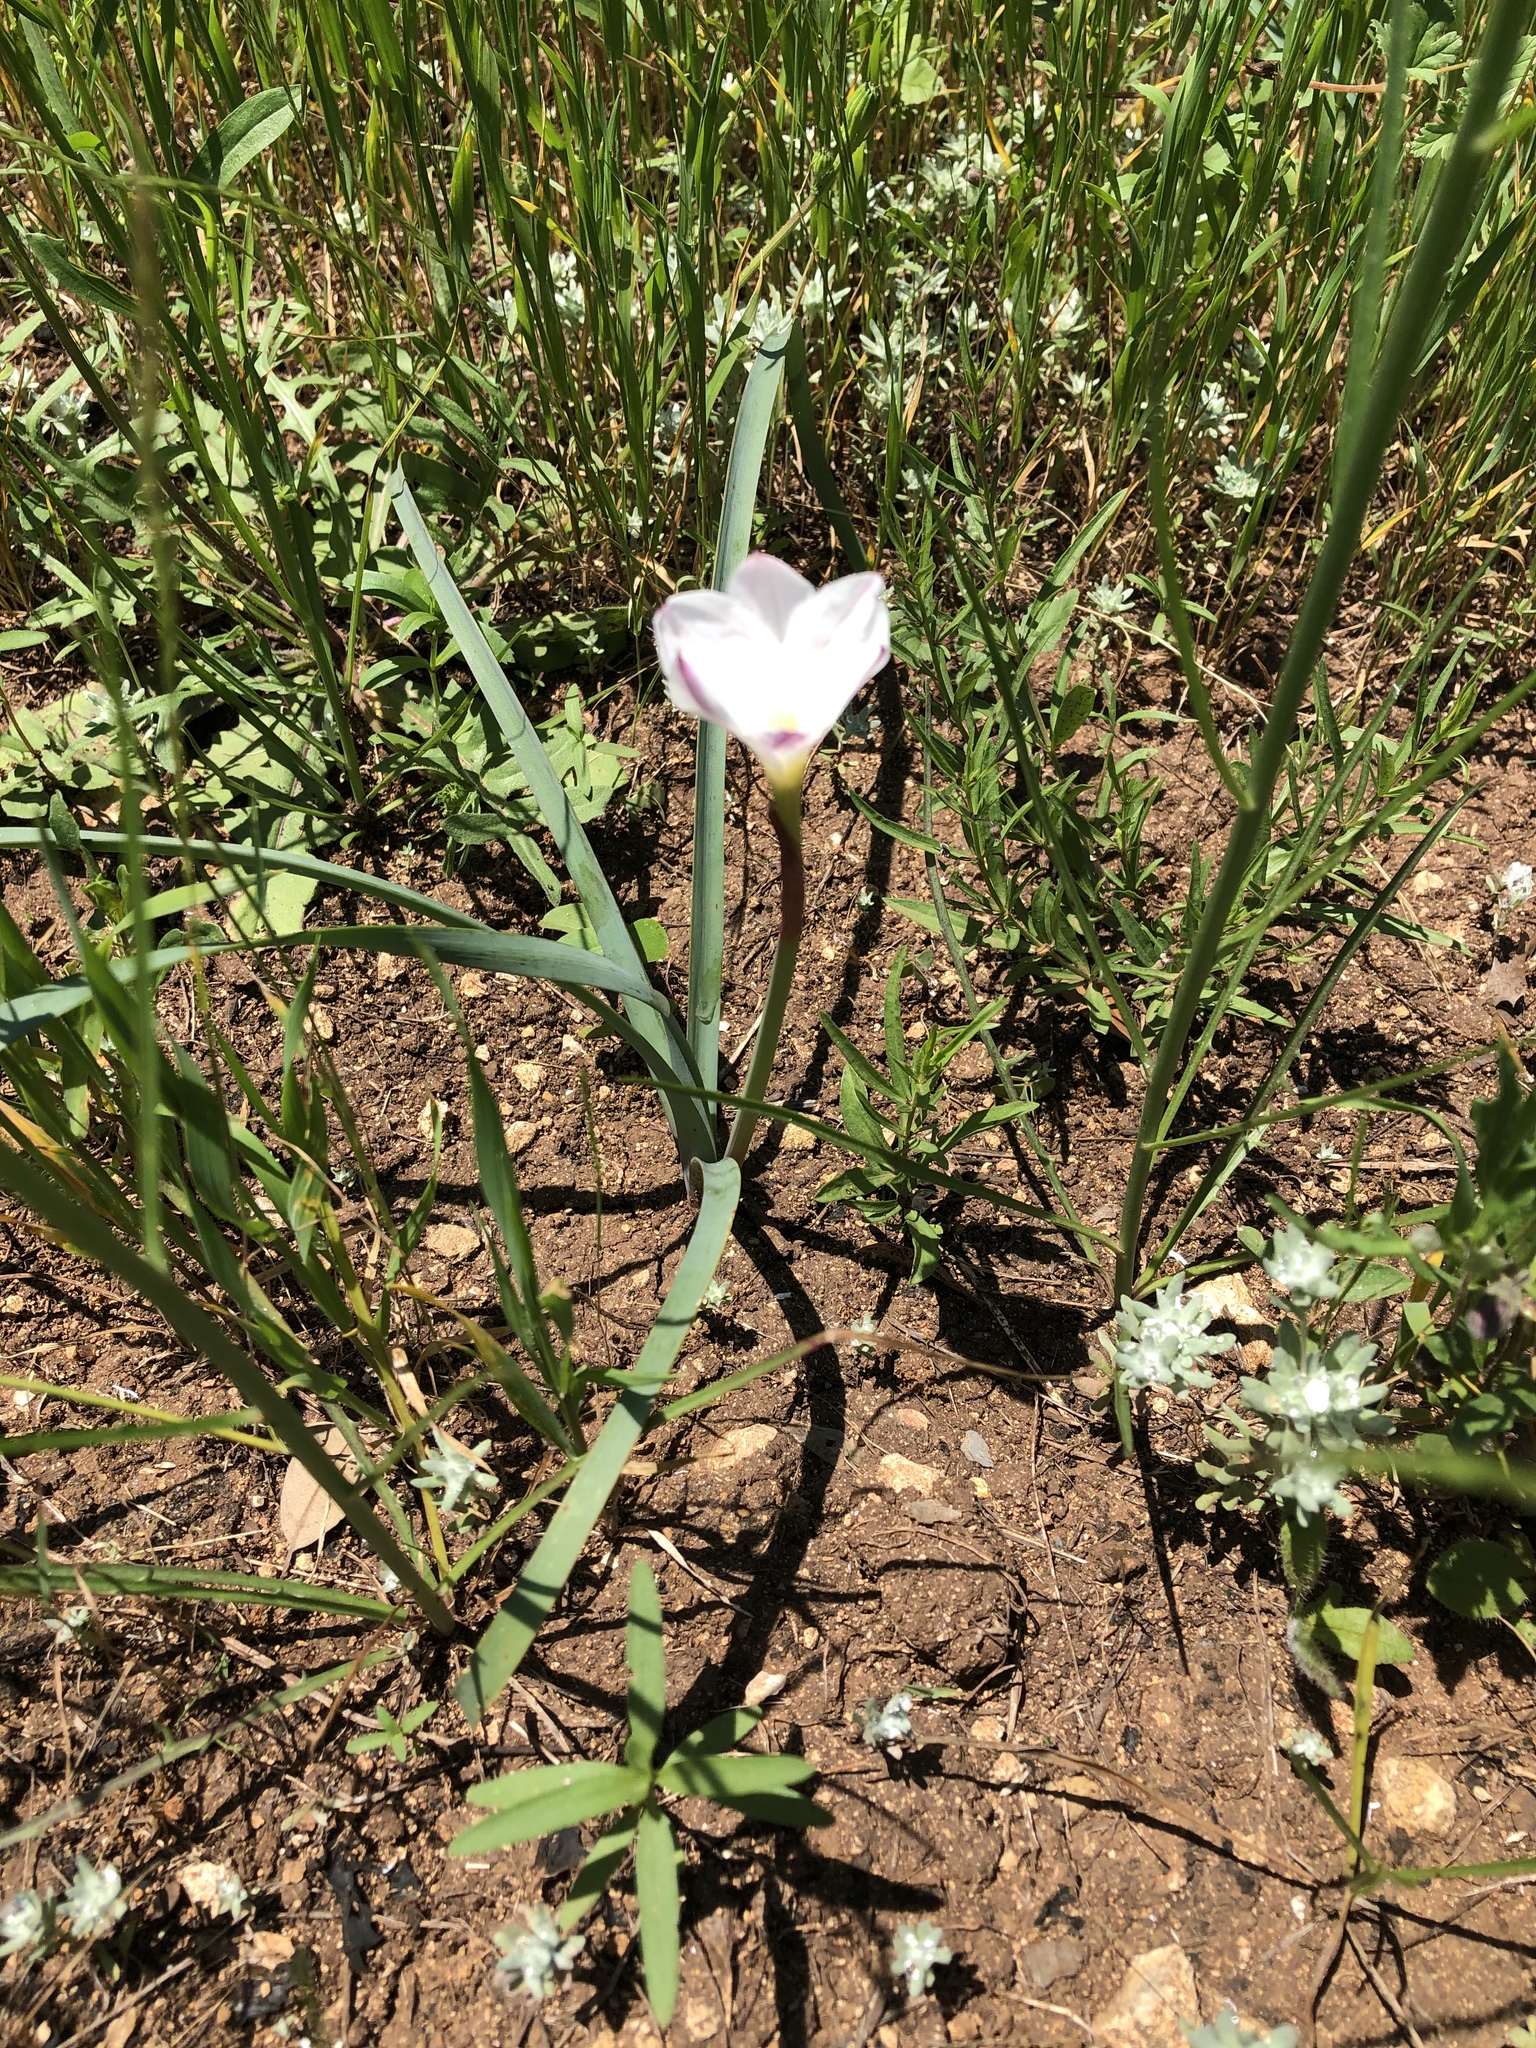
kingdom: Plantae
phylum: Tracheophyta
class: Liliopsida
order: Asparagales
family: Amaryllidaceae
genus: Zephyranthes
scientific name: Zephyranthes drummondii
